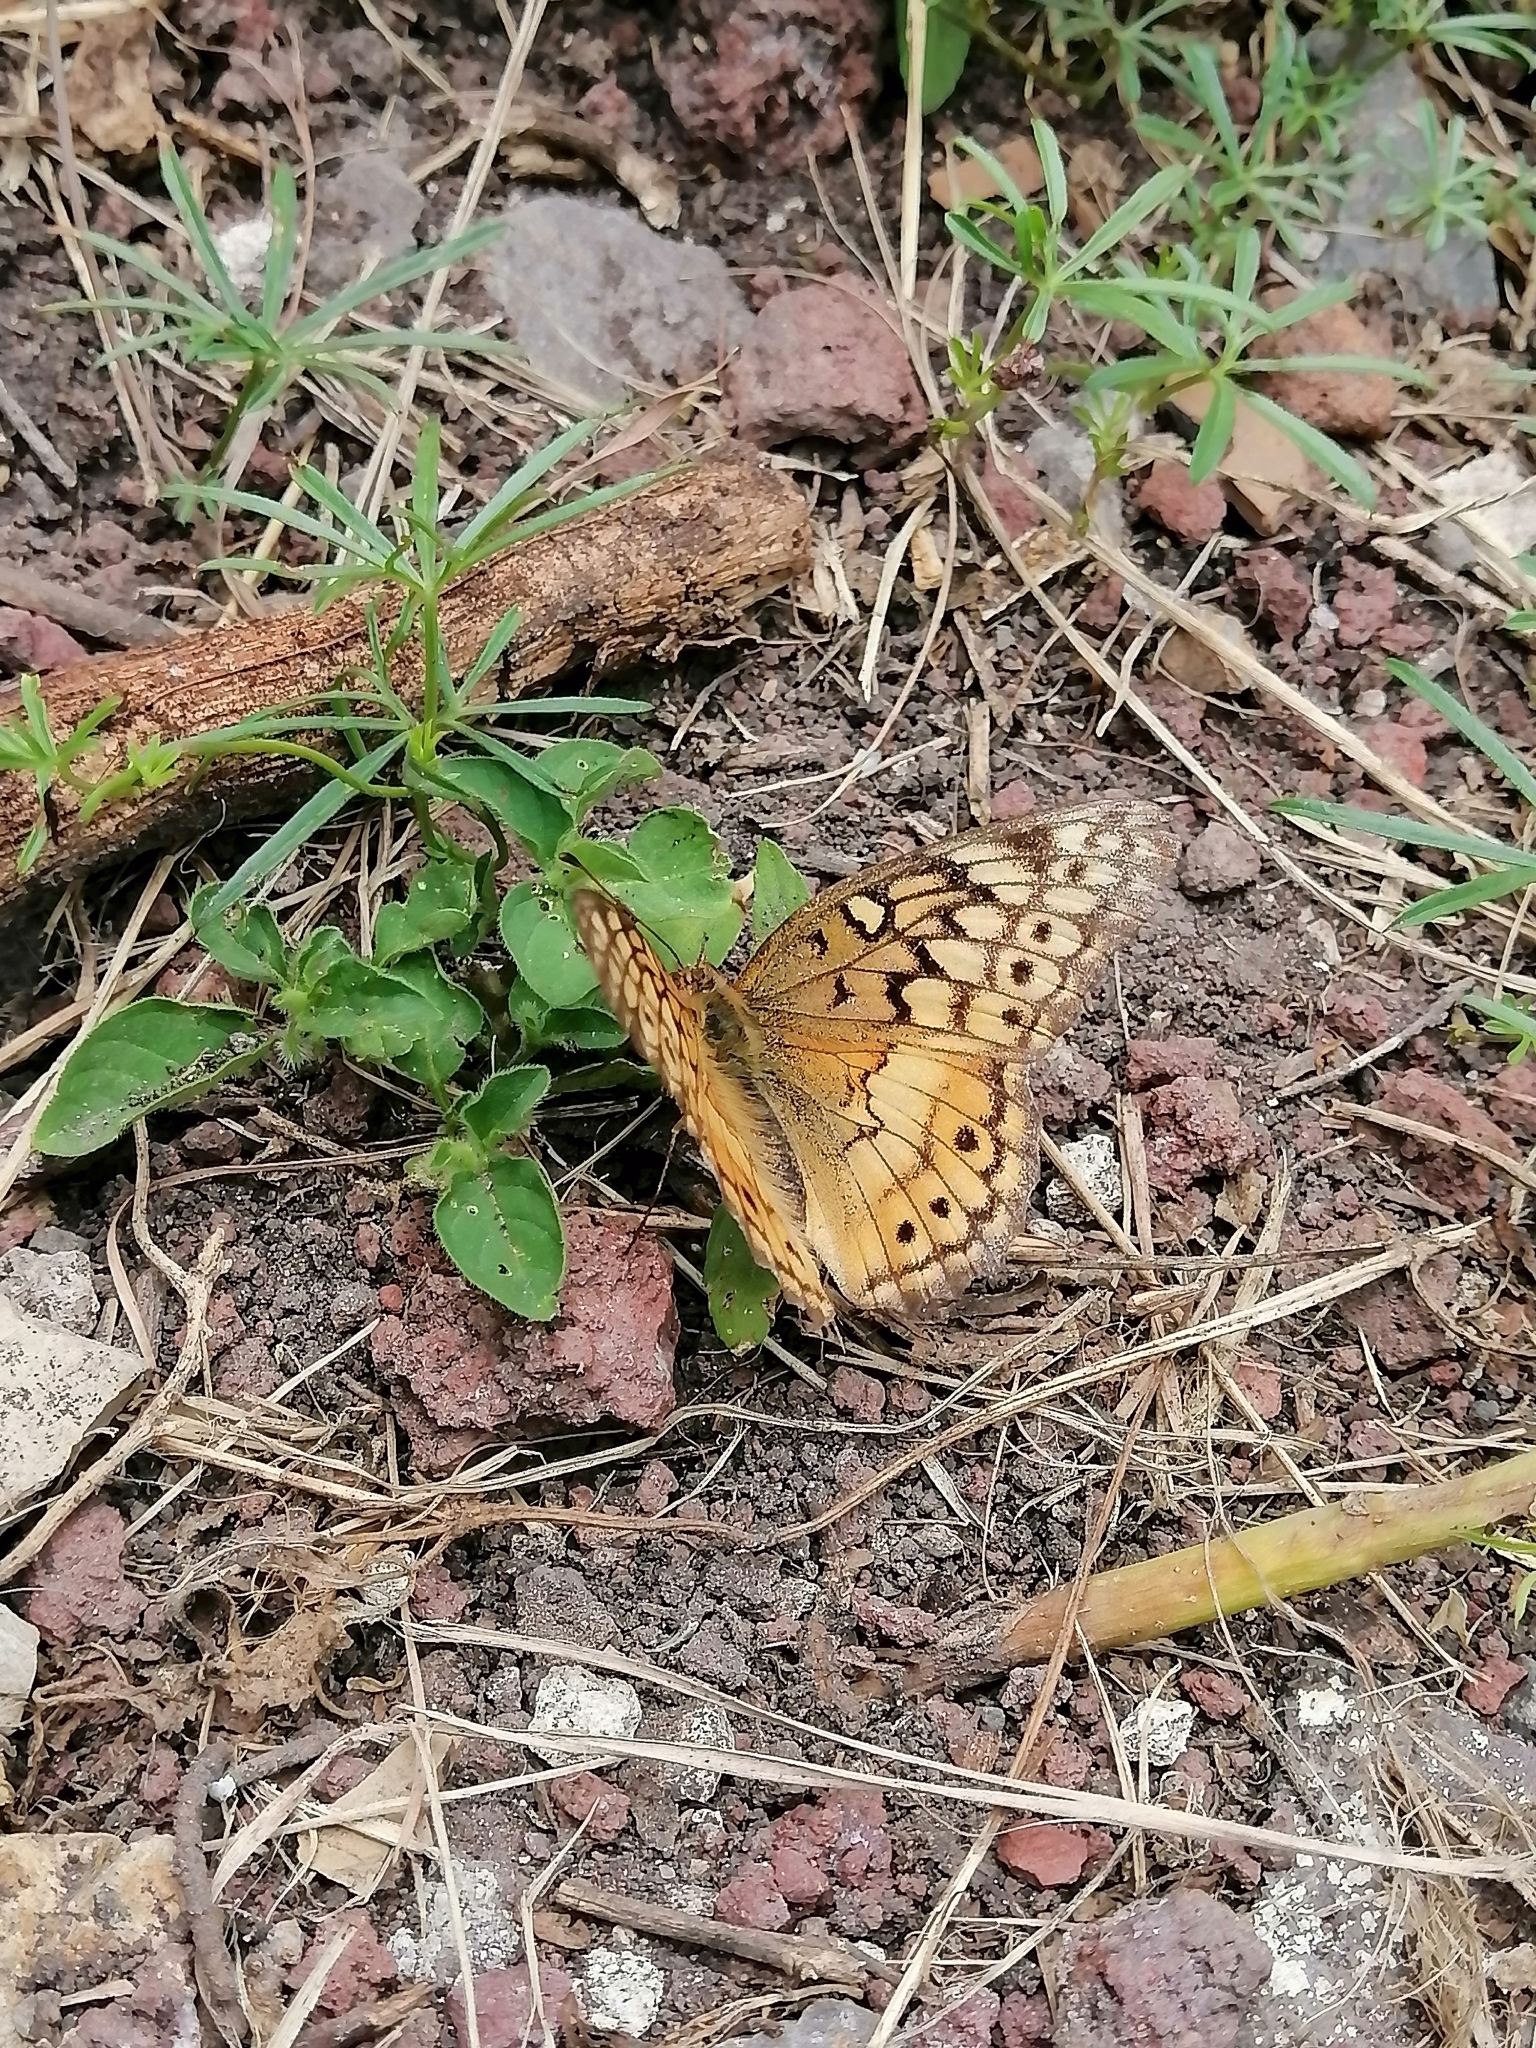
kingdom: Animalia
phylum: Arthropoda
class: Insecta
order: Lepidoptera
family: Nymphalidae
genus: Euptoieta
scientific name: Euptoieta claudia
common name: Variegated fritillary
